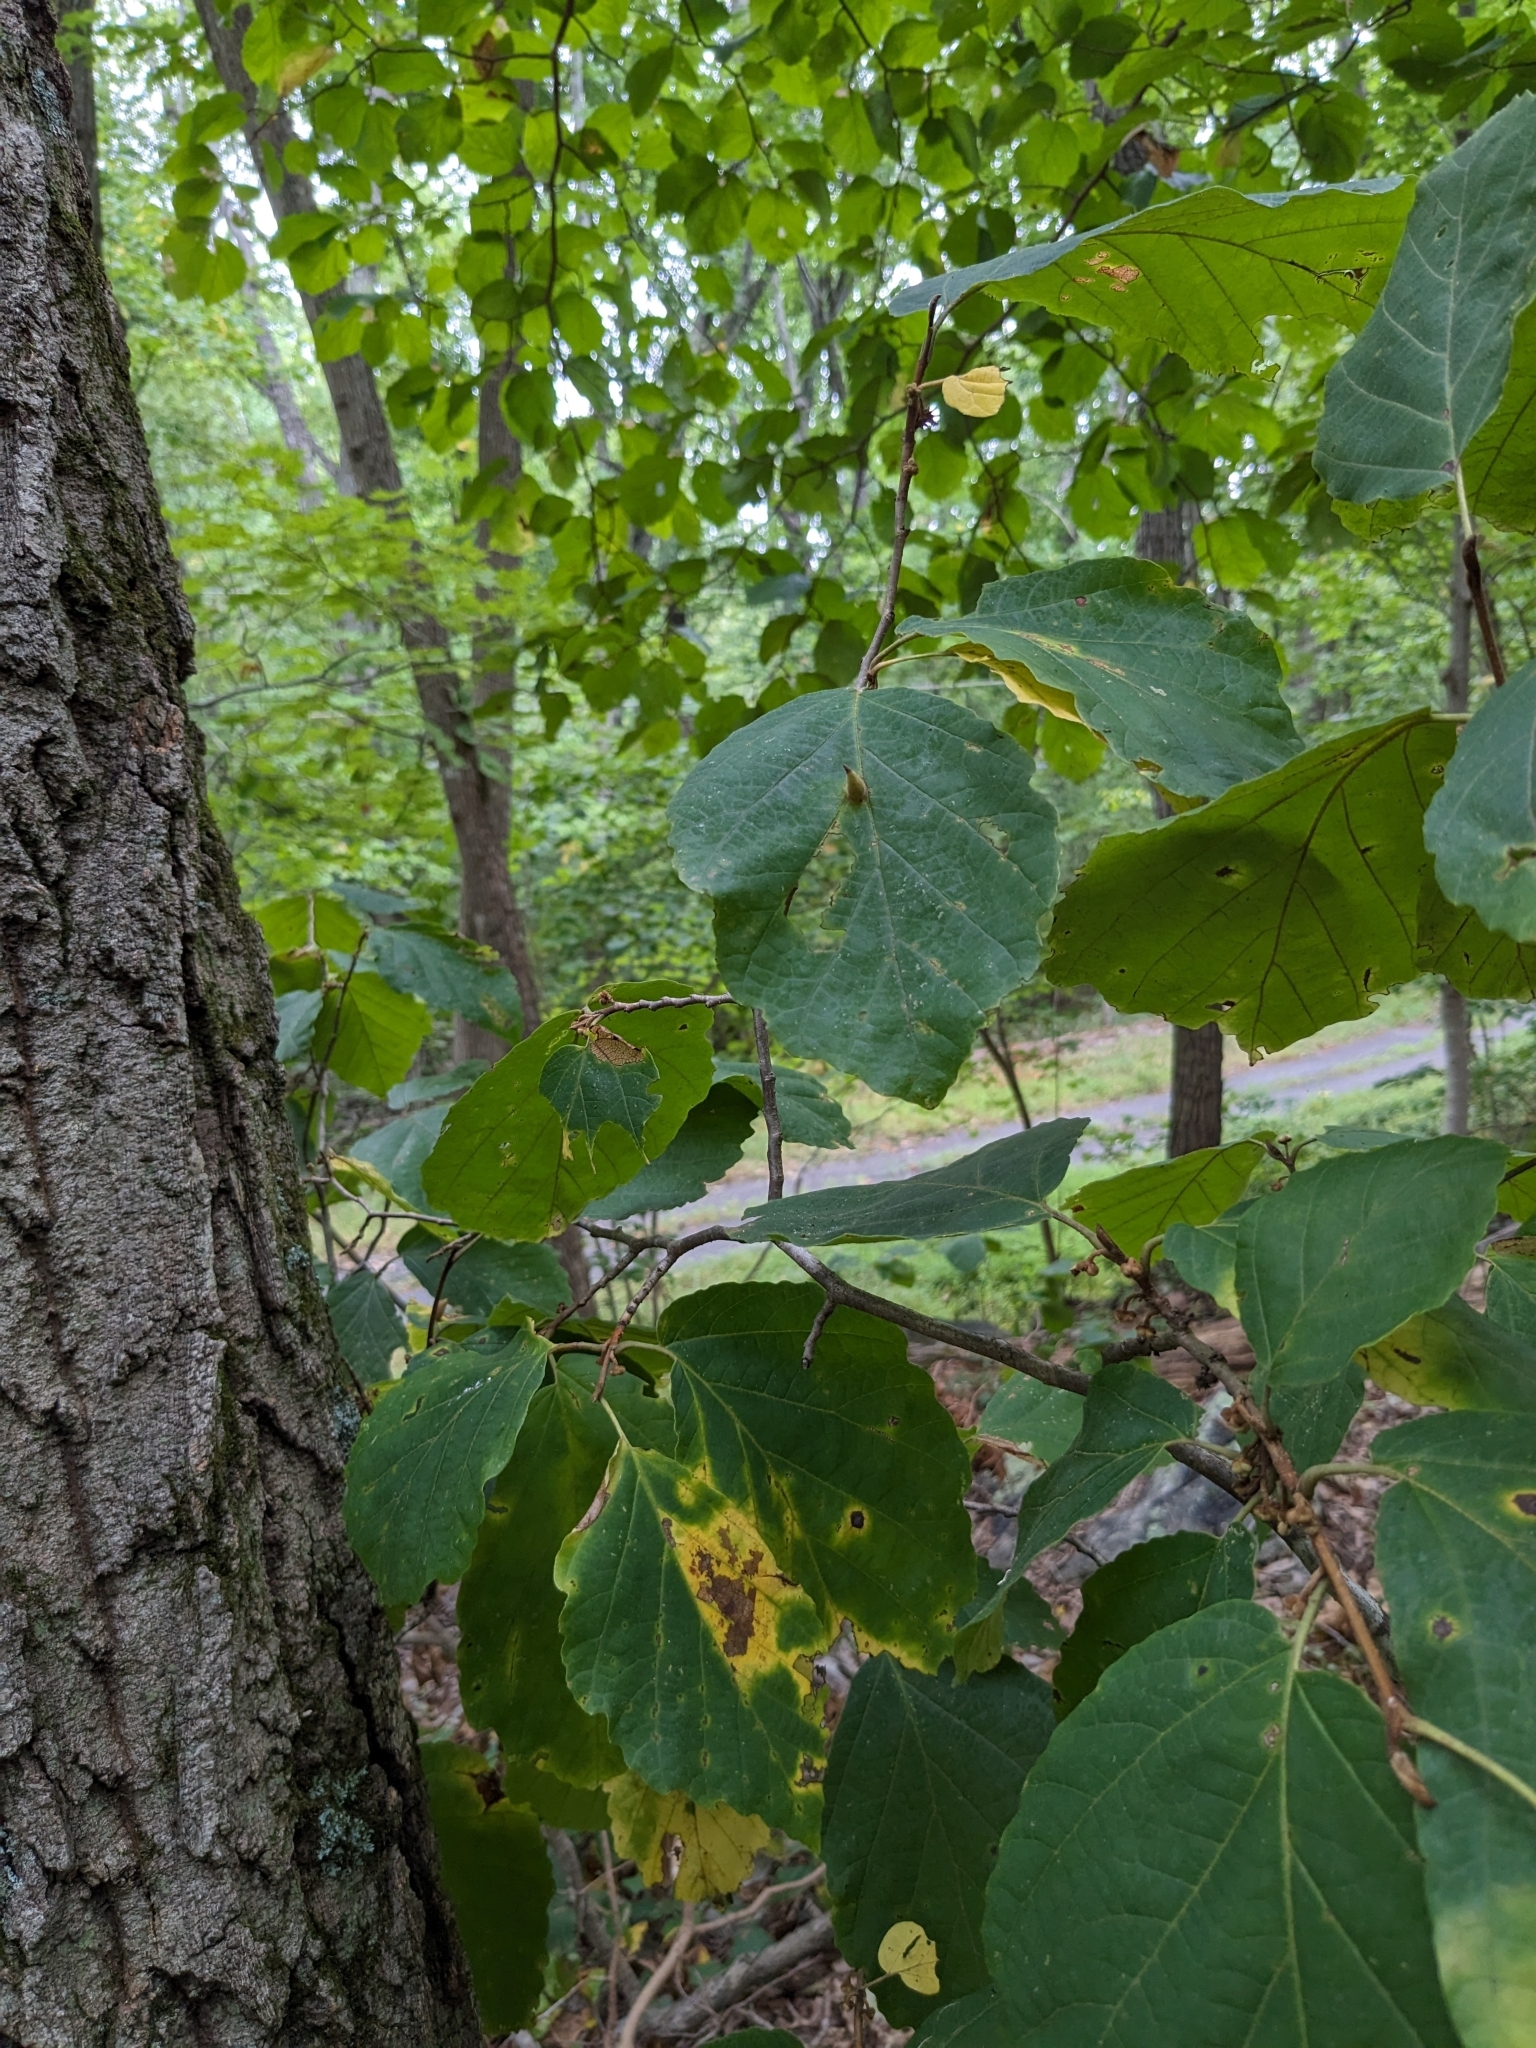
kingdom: Animalia
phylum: Arthropoda
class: Insecta
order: Hemiptera
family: Aphididae
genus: Hormaphis
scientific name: Hormaphis hamamelidis
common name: Witch-hazel cone gall aphid
